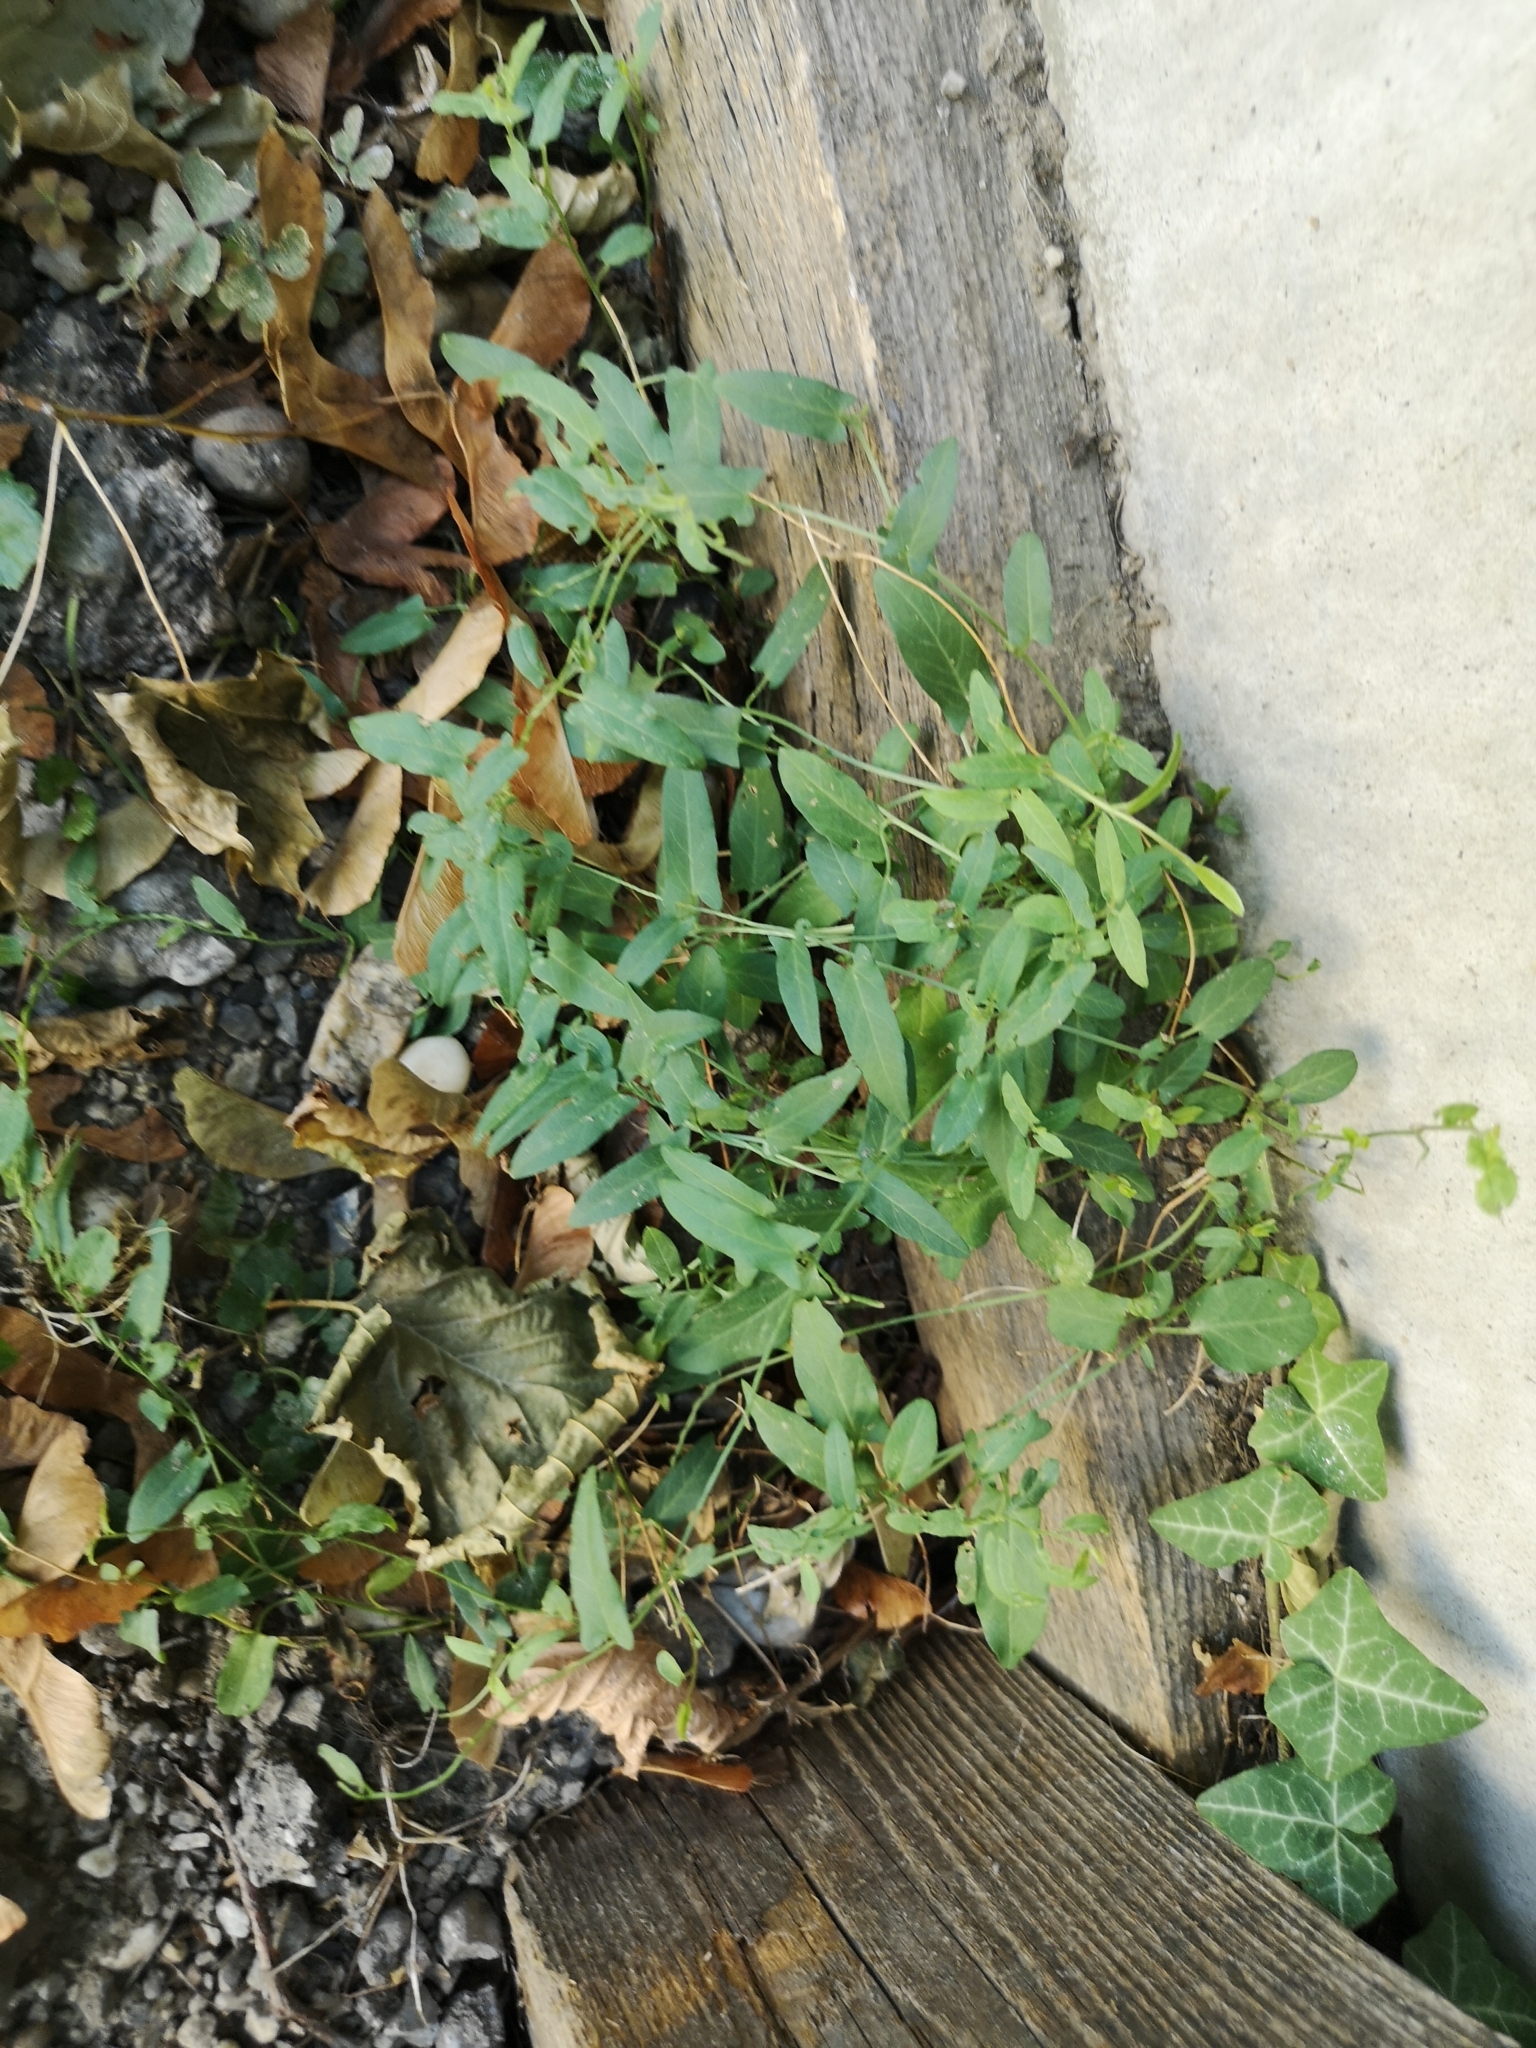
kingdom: Plantae
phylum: Tracheophyta
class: Magnoliopsida
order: Solanales
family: Convolvulaceae
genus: Convolvulus
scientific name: Convolvulus arvensis
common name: Field bindweed
